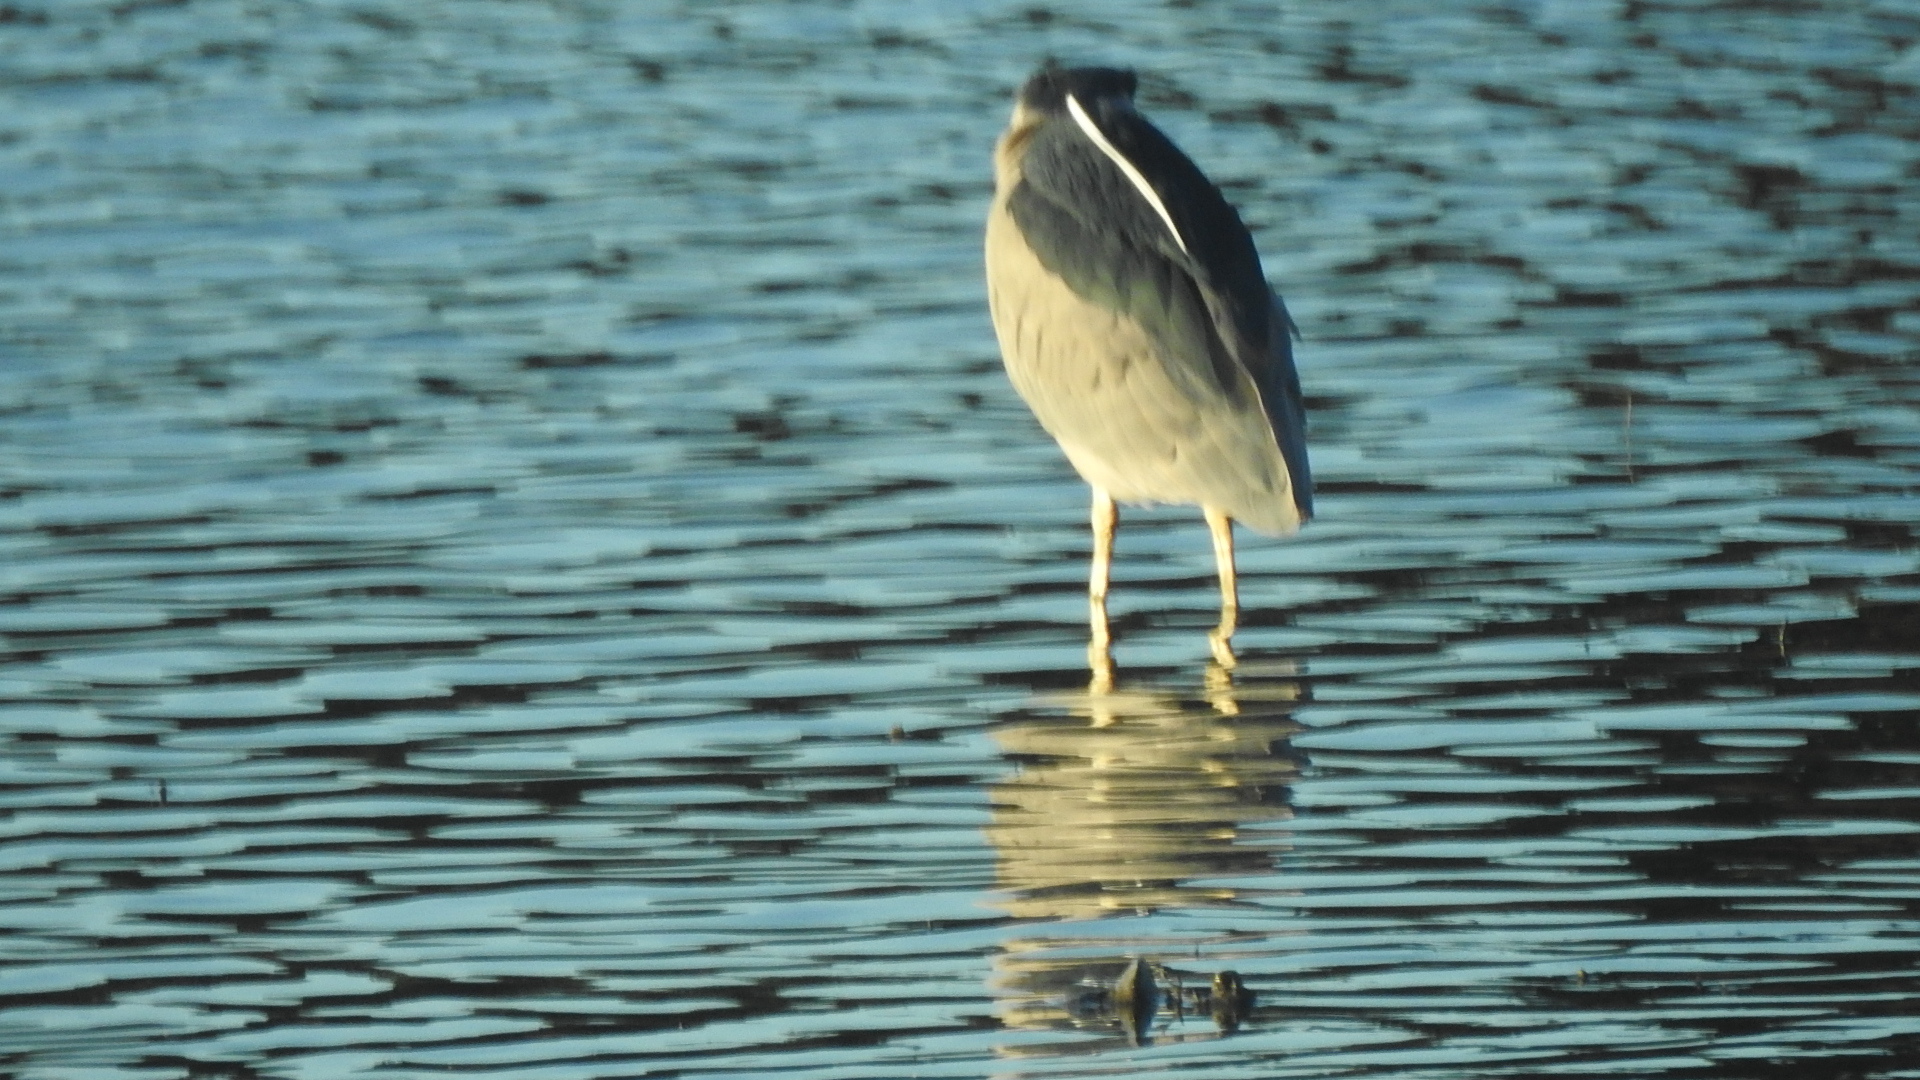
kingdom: Animalia
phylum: Chordata
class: Aves
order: Pelecaniformes
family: Ardeidae
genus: Nycticorax
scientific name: Nycticorax nycticorax
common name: Black-crowned night heron
